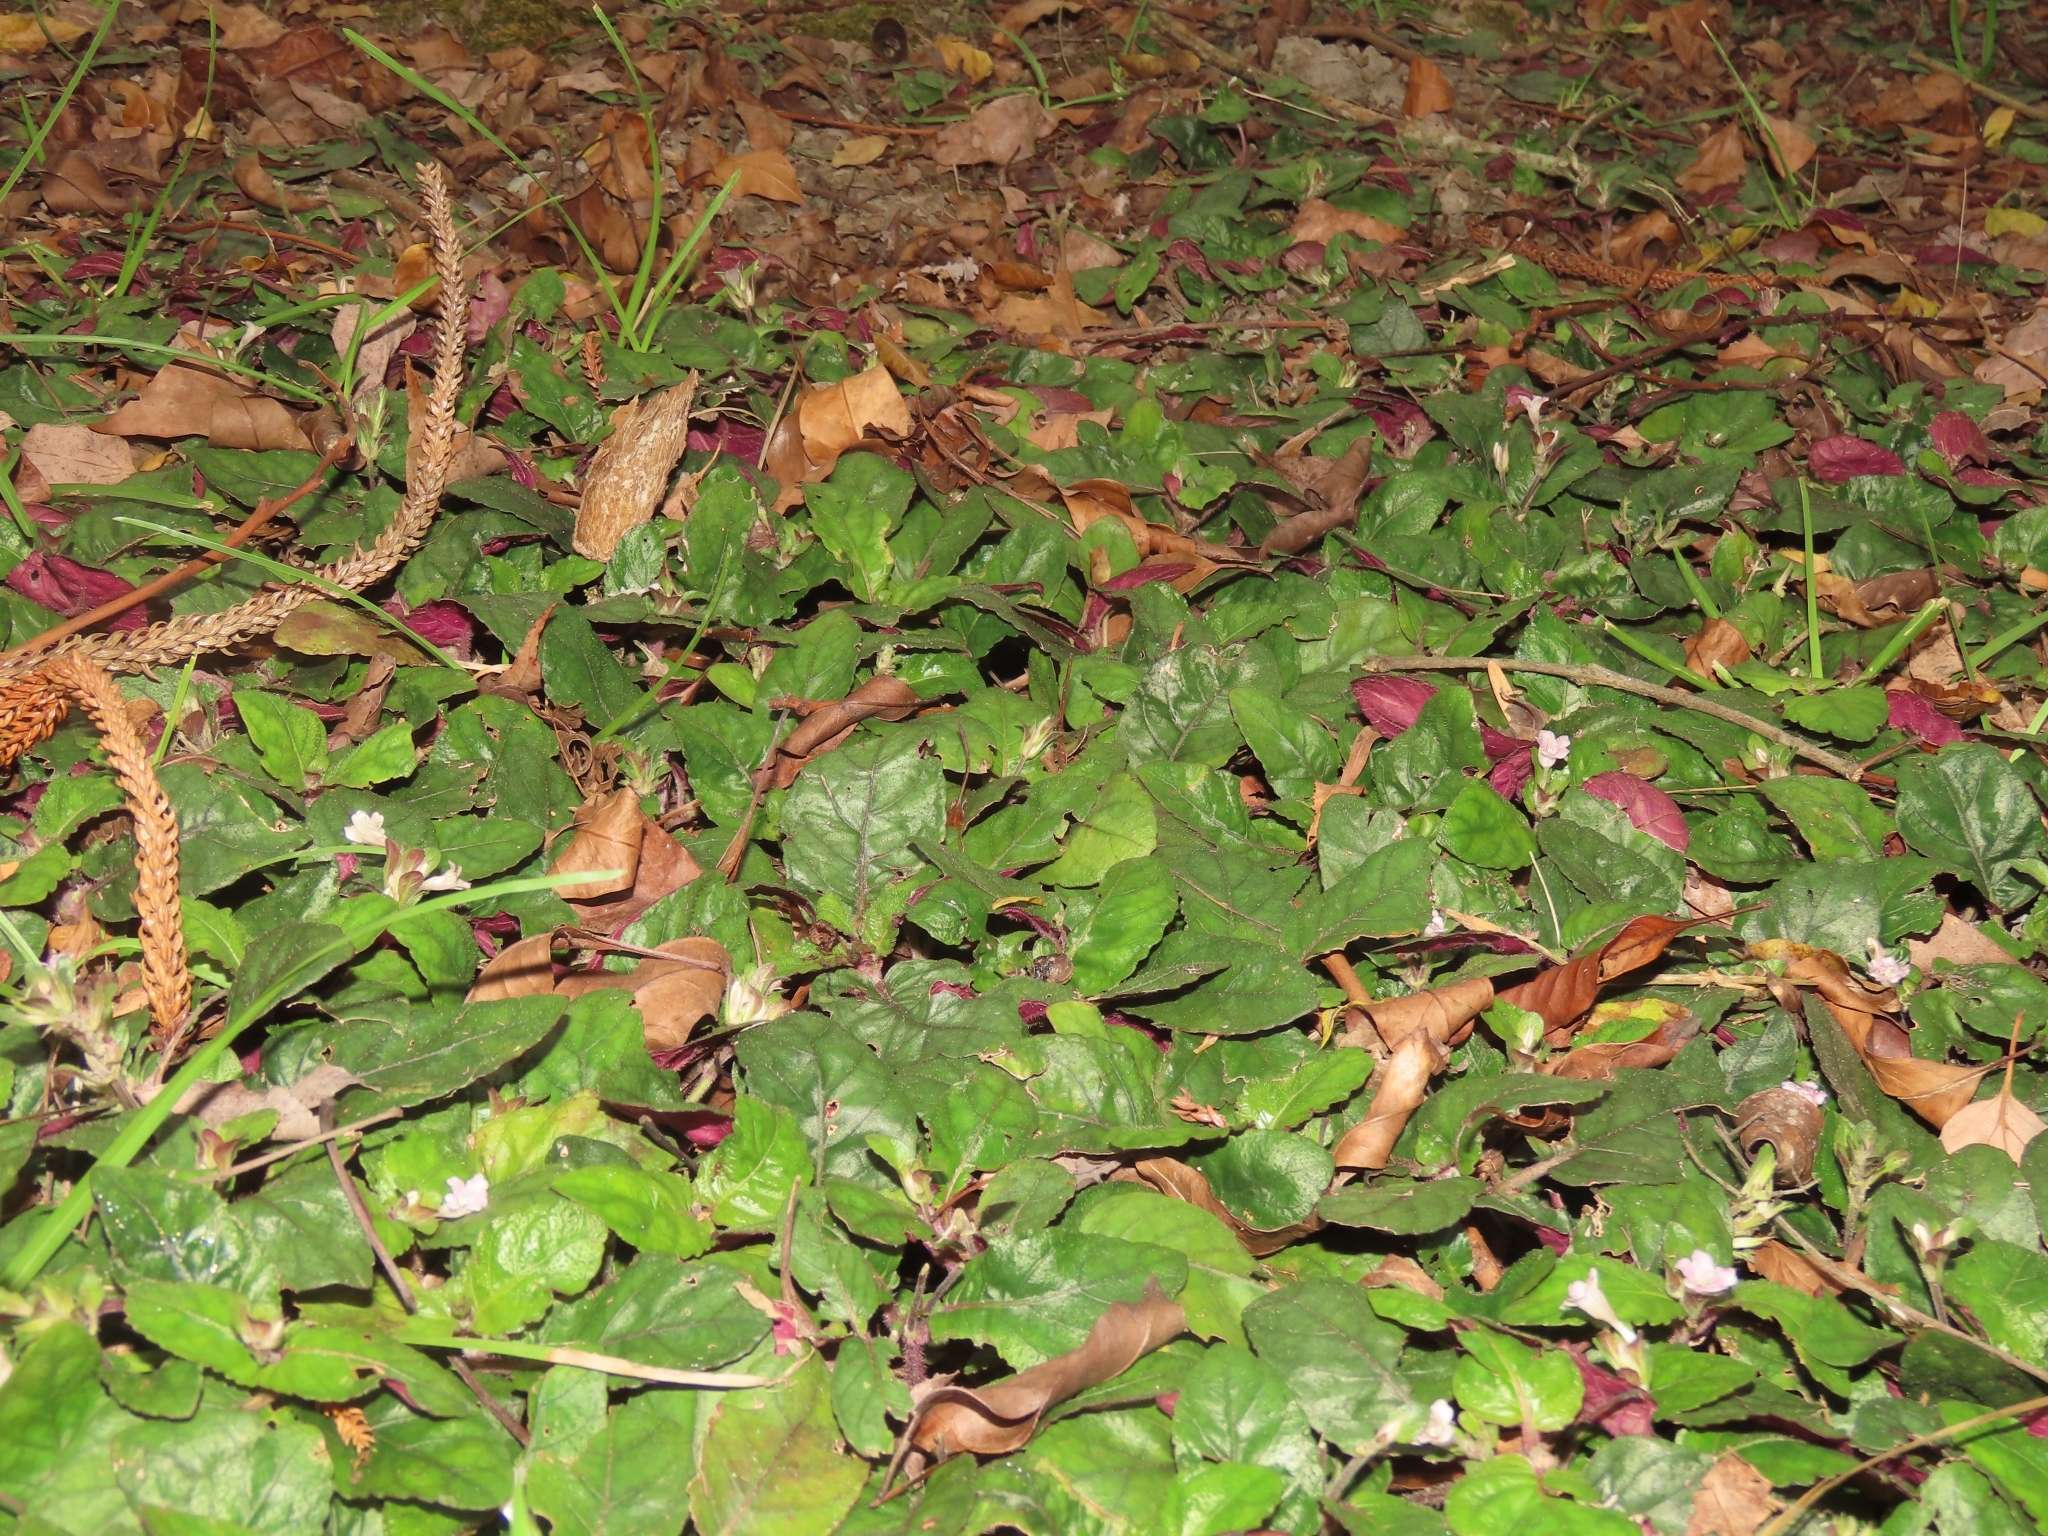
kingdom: Plantae
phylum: Tracheophyta
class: Magnoliopsida
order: Lamiales
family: Acanthaceae
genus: Strobilanthes
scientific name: Strobilanthes reptans
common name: Acanthaceae
